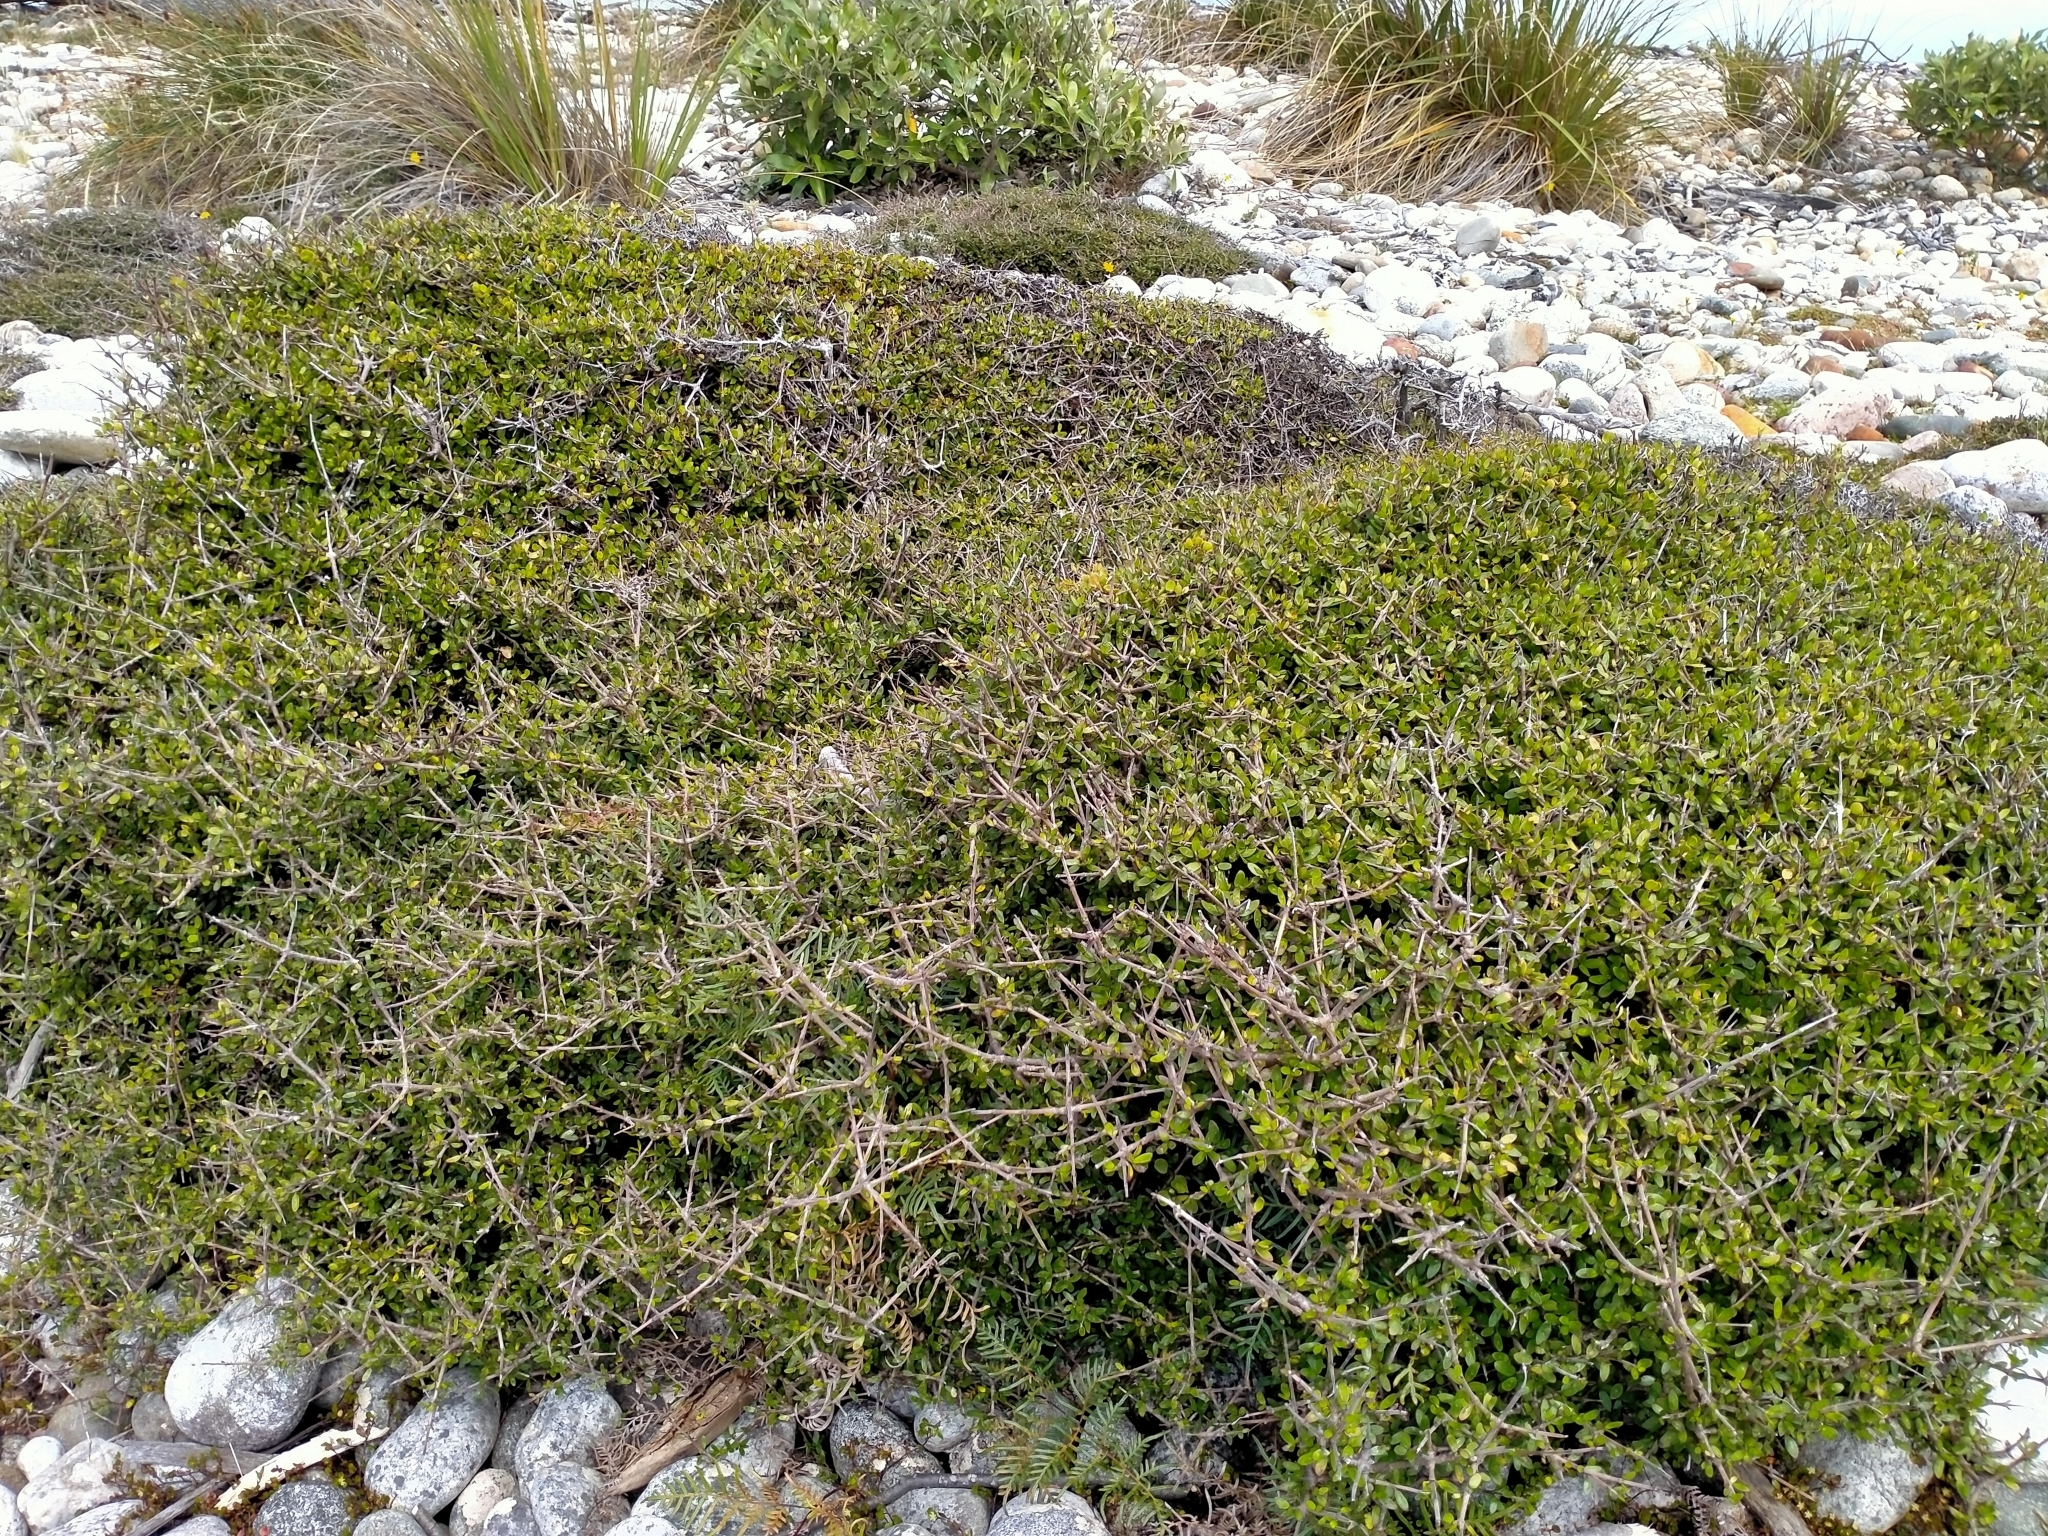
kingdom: Plantae
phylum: Tracheophyta
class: Magnoliopsida
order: Gentianales
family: Rubiaceae
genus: Coprosma
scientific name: Coprosma propinqua
